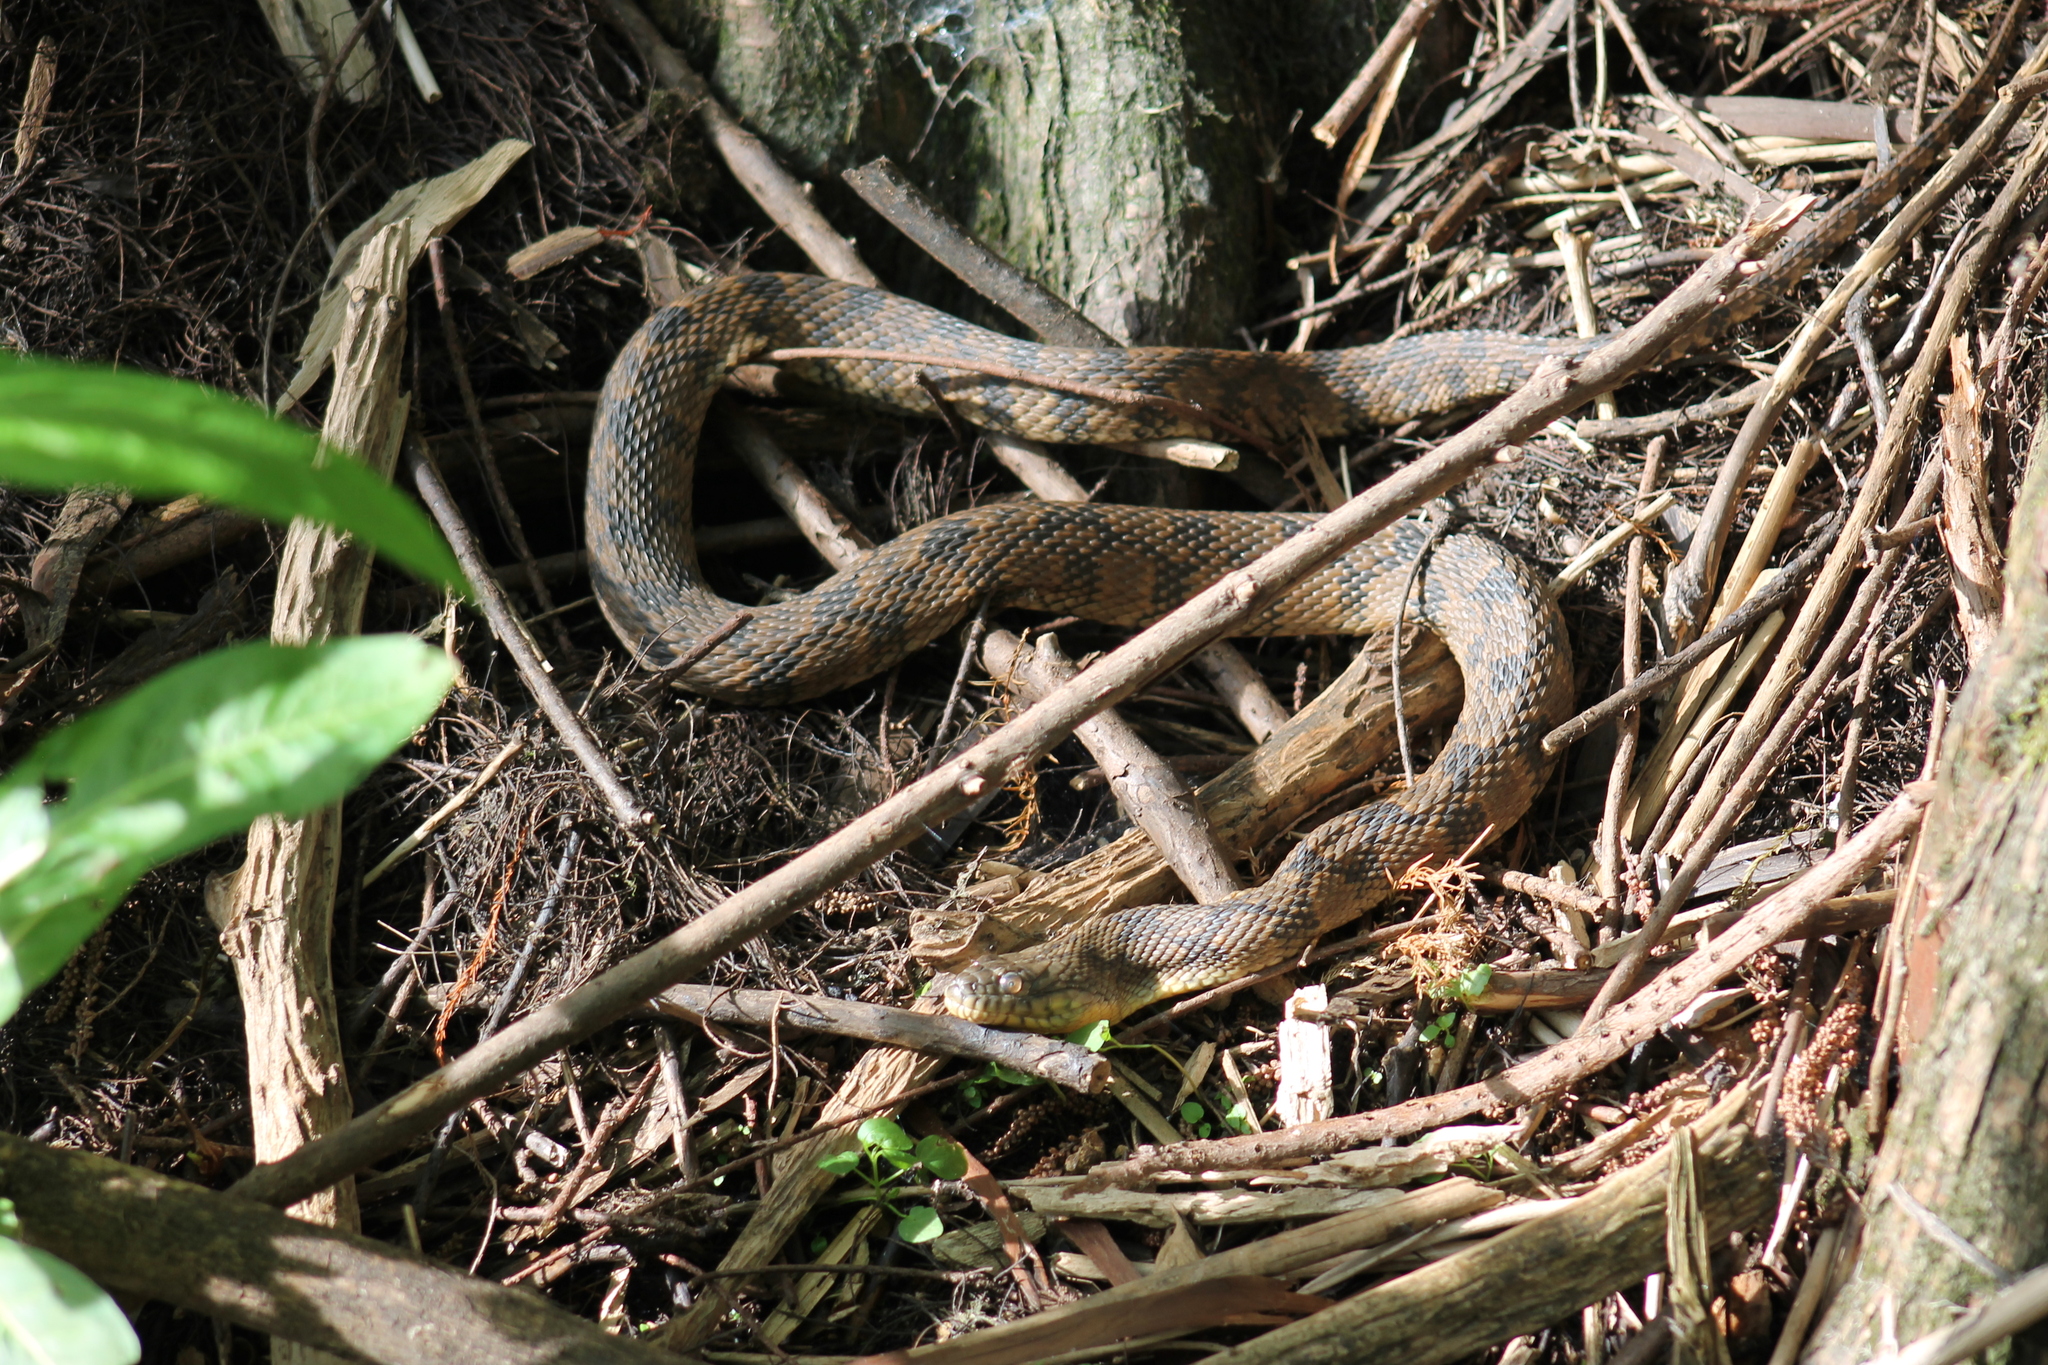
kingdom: Animalia
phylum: Chordata
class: Squamata
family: Colubridae
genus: Nerodia
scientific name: Nerodia rhombifer
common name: Diamondback water snake
